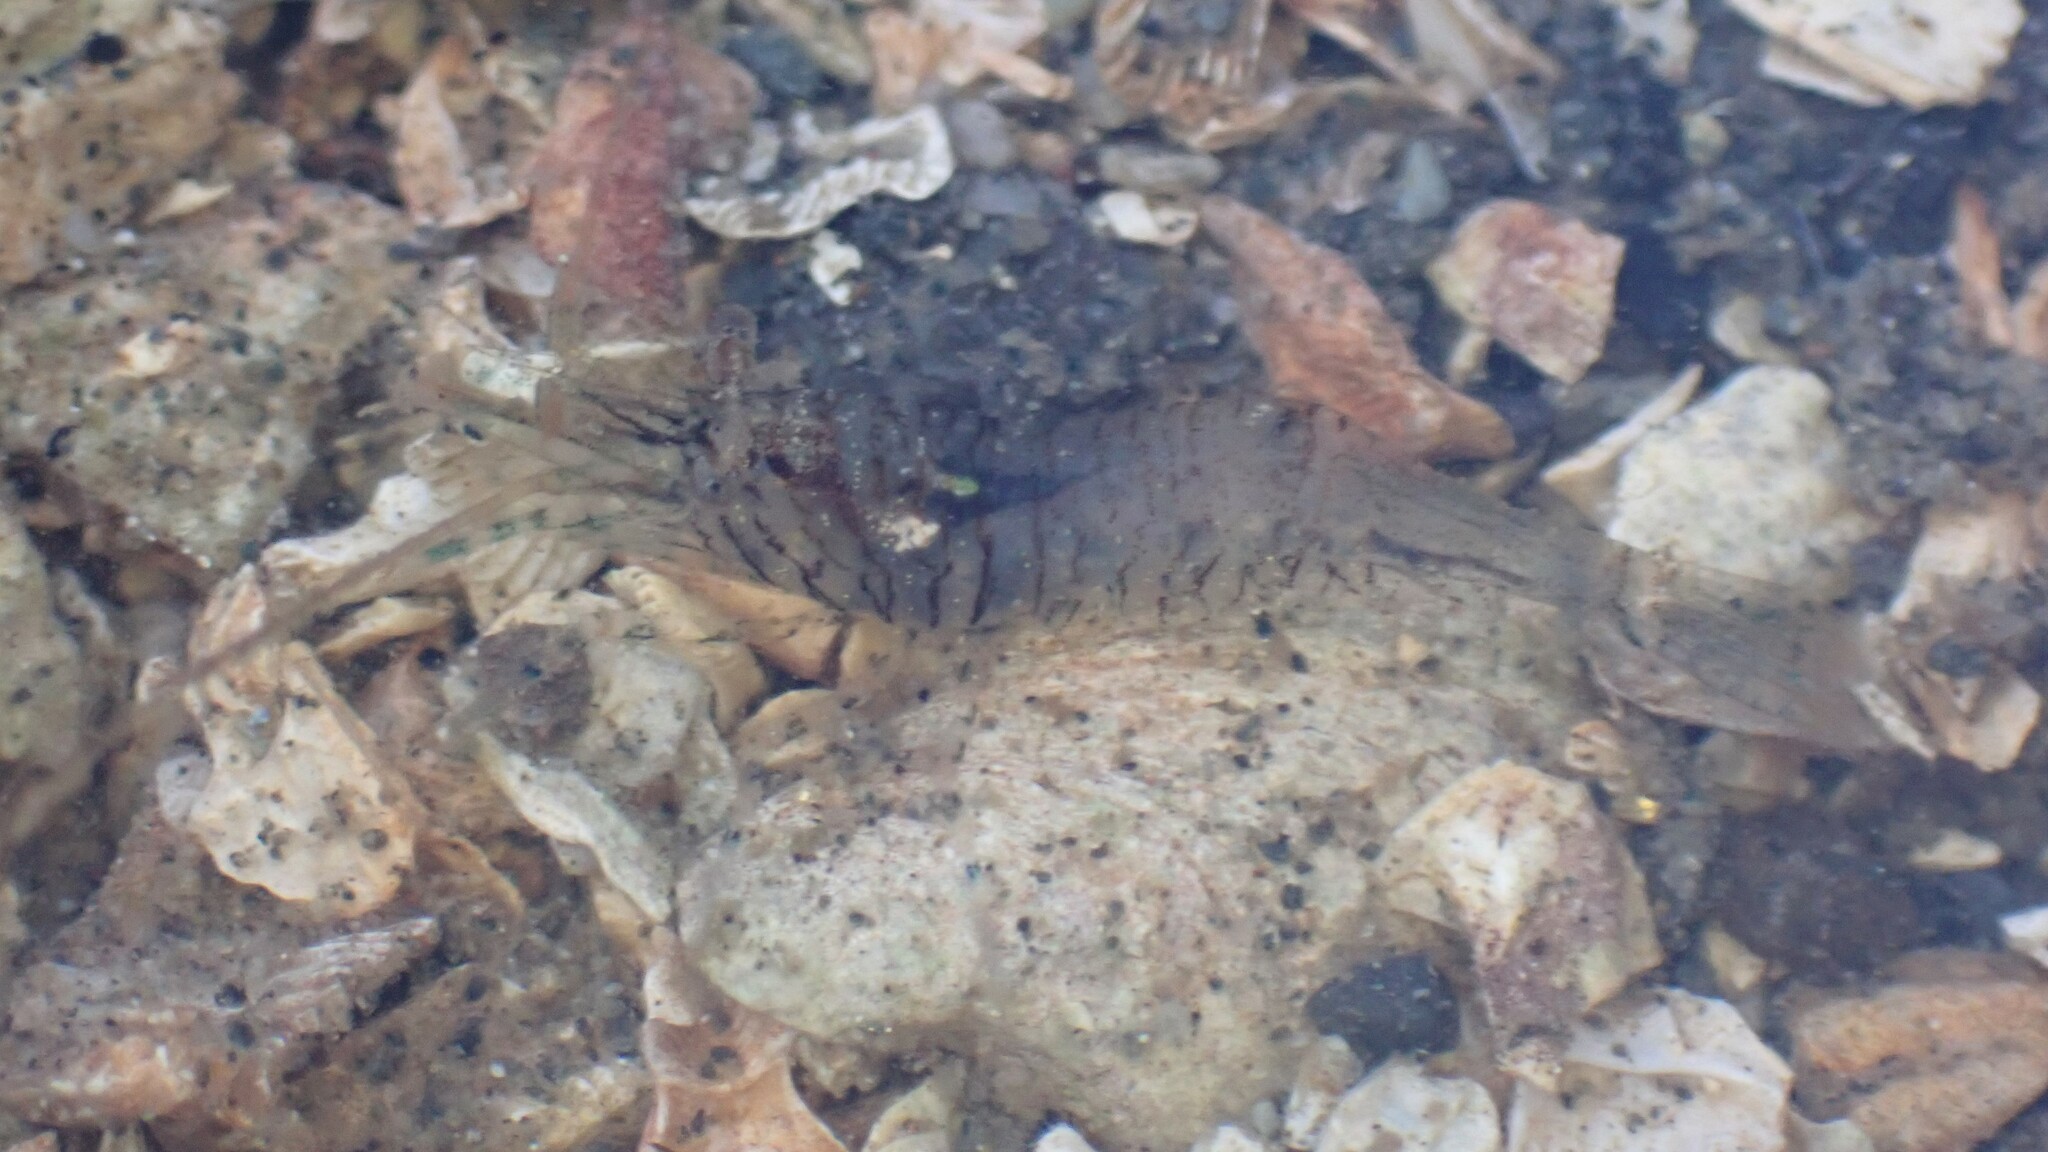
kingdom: Animalia
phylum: Arthropoda
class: Malacostraca
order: Decapoda
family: Thoridae
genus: Heptacarpus
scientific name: Heptacarpus sitchensis
